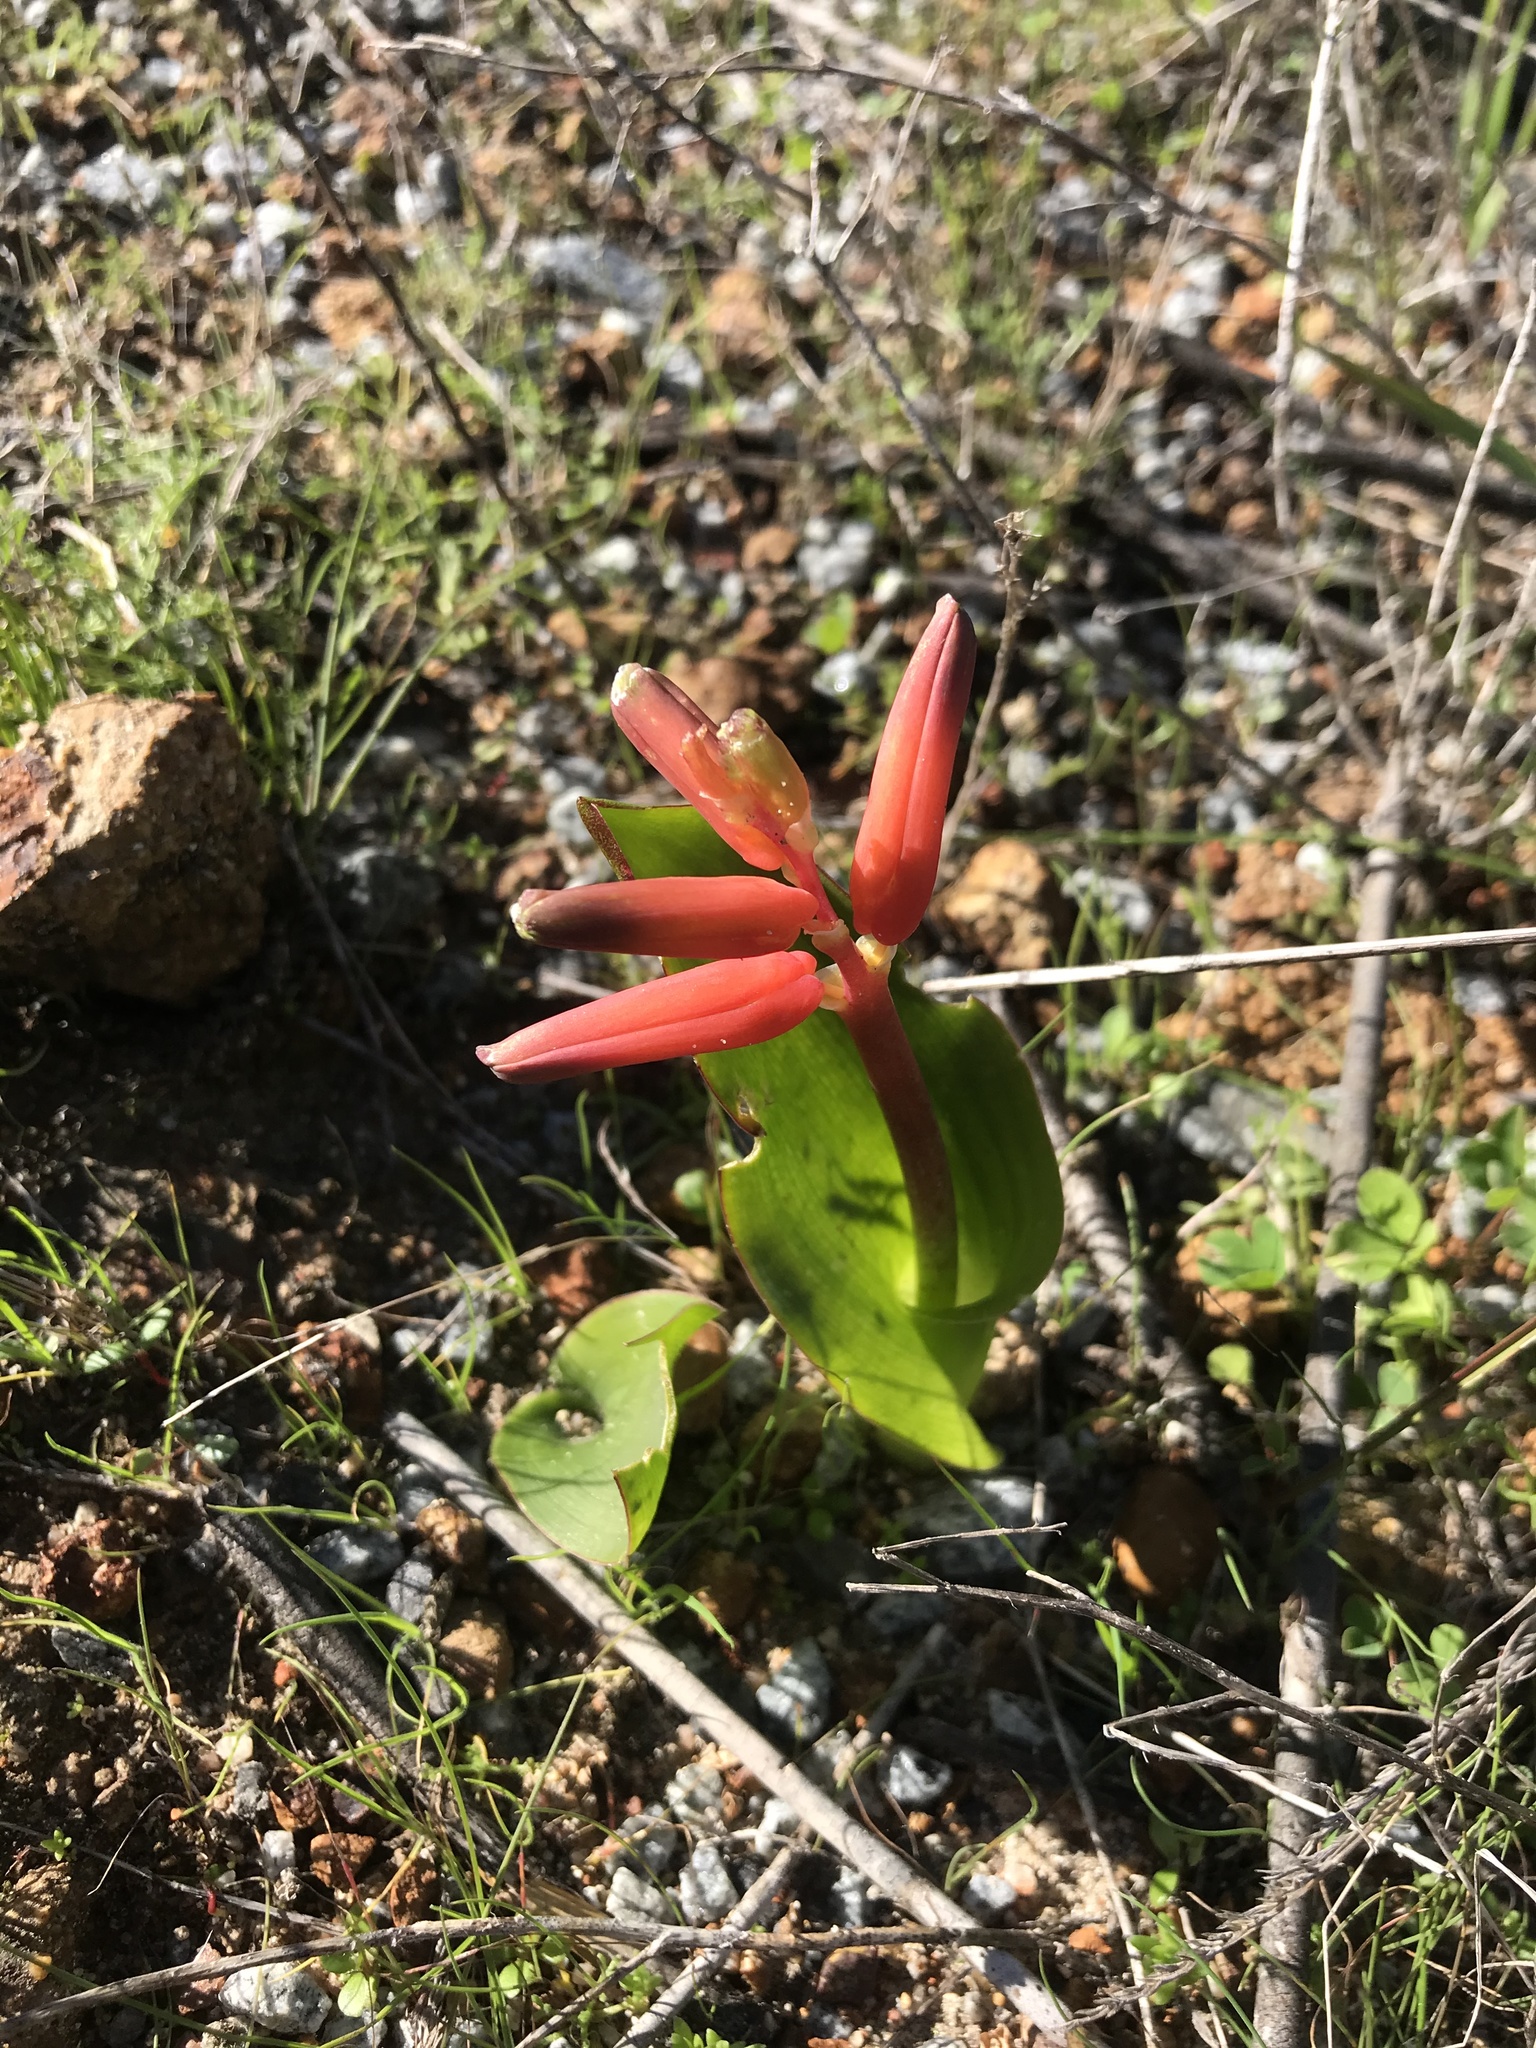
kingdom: Plantae
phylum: Tracheophyta
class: Liliopsida
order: Asparagales
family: Asparagaceae
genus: Lachenalia
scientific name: Lachenalia bulbifera
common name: Red lachenalia
